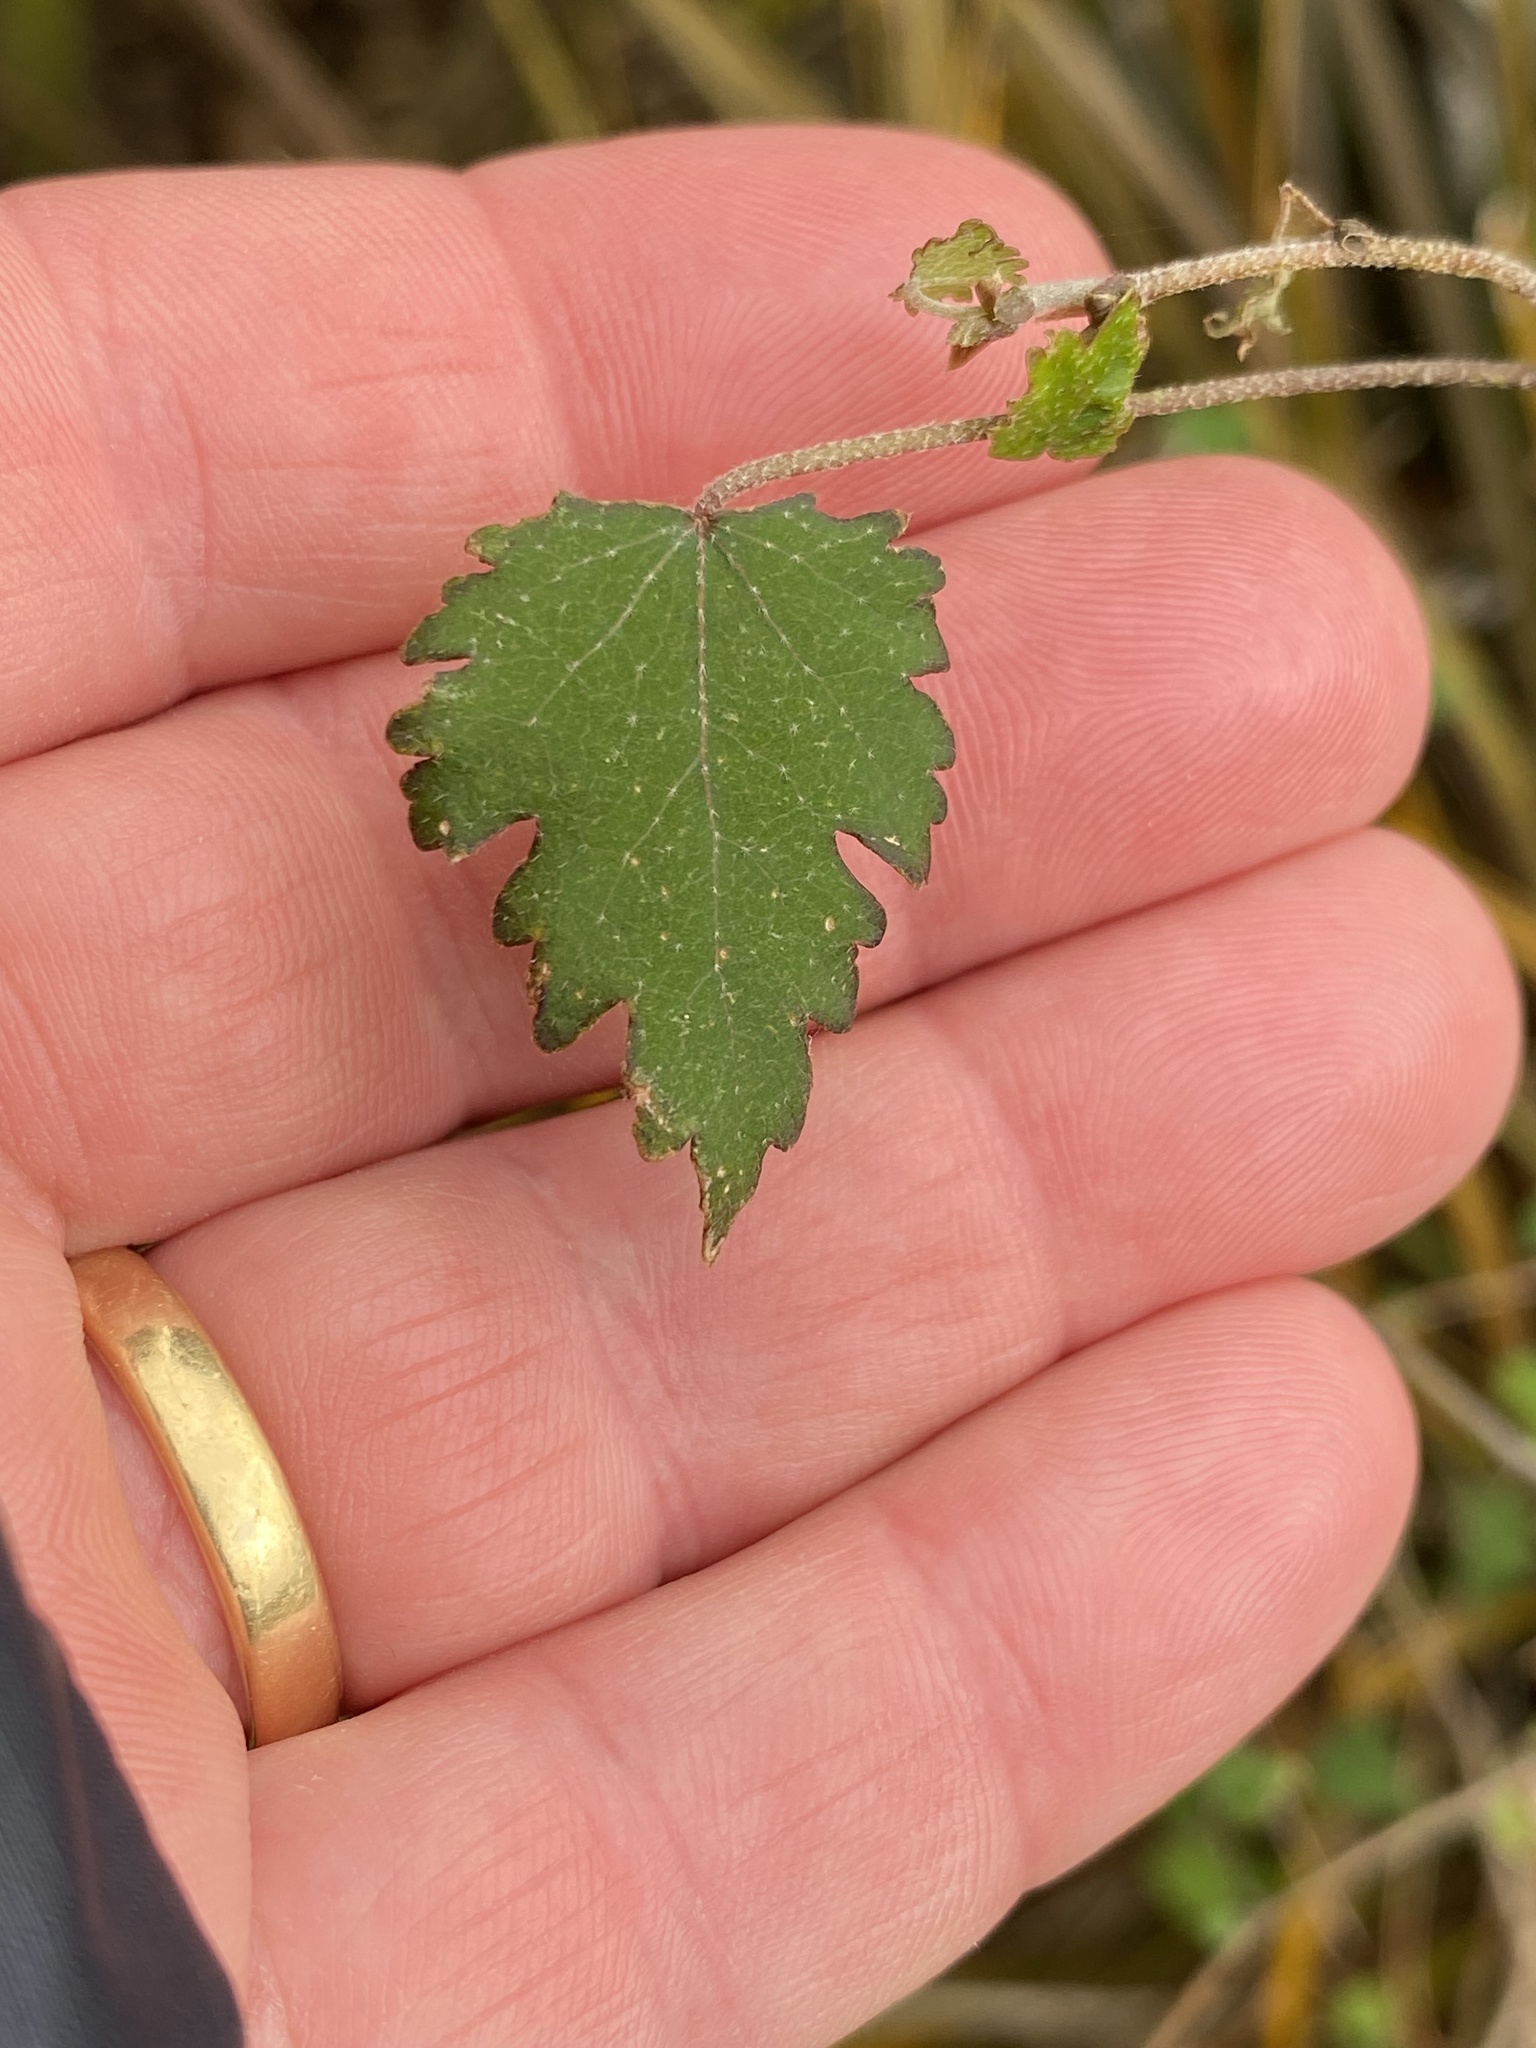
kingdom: Plantae
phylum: Tracheophyta
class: Magnoliopsida
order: Malvales
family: Malvaceae
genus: Plagianthus
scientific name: Plagianthus regius
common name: Manatu
